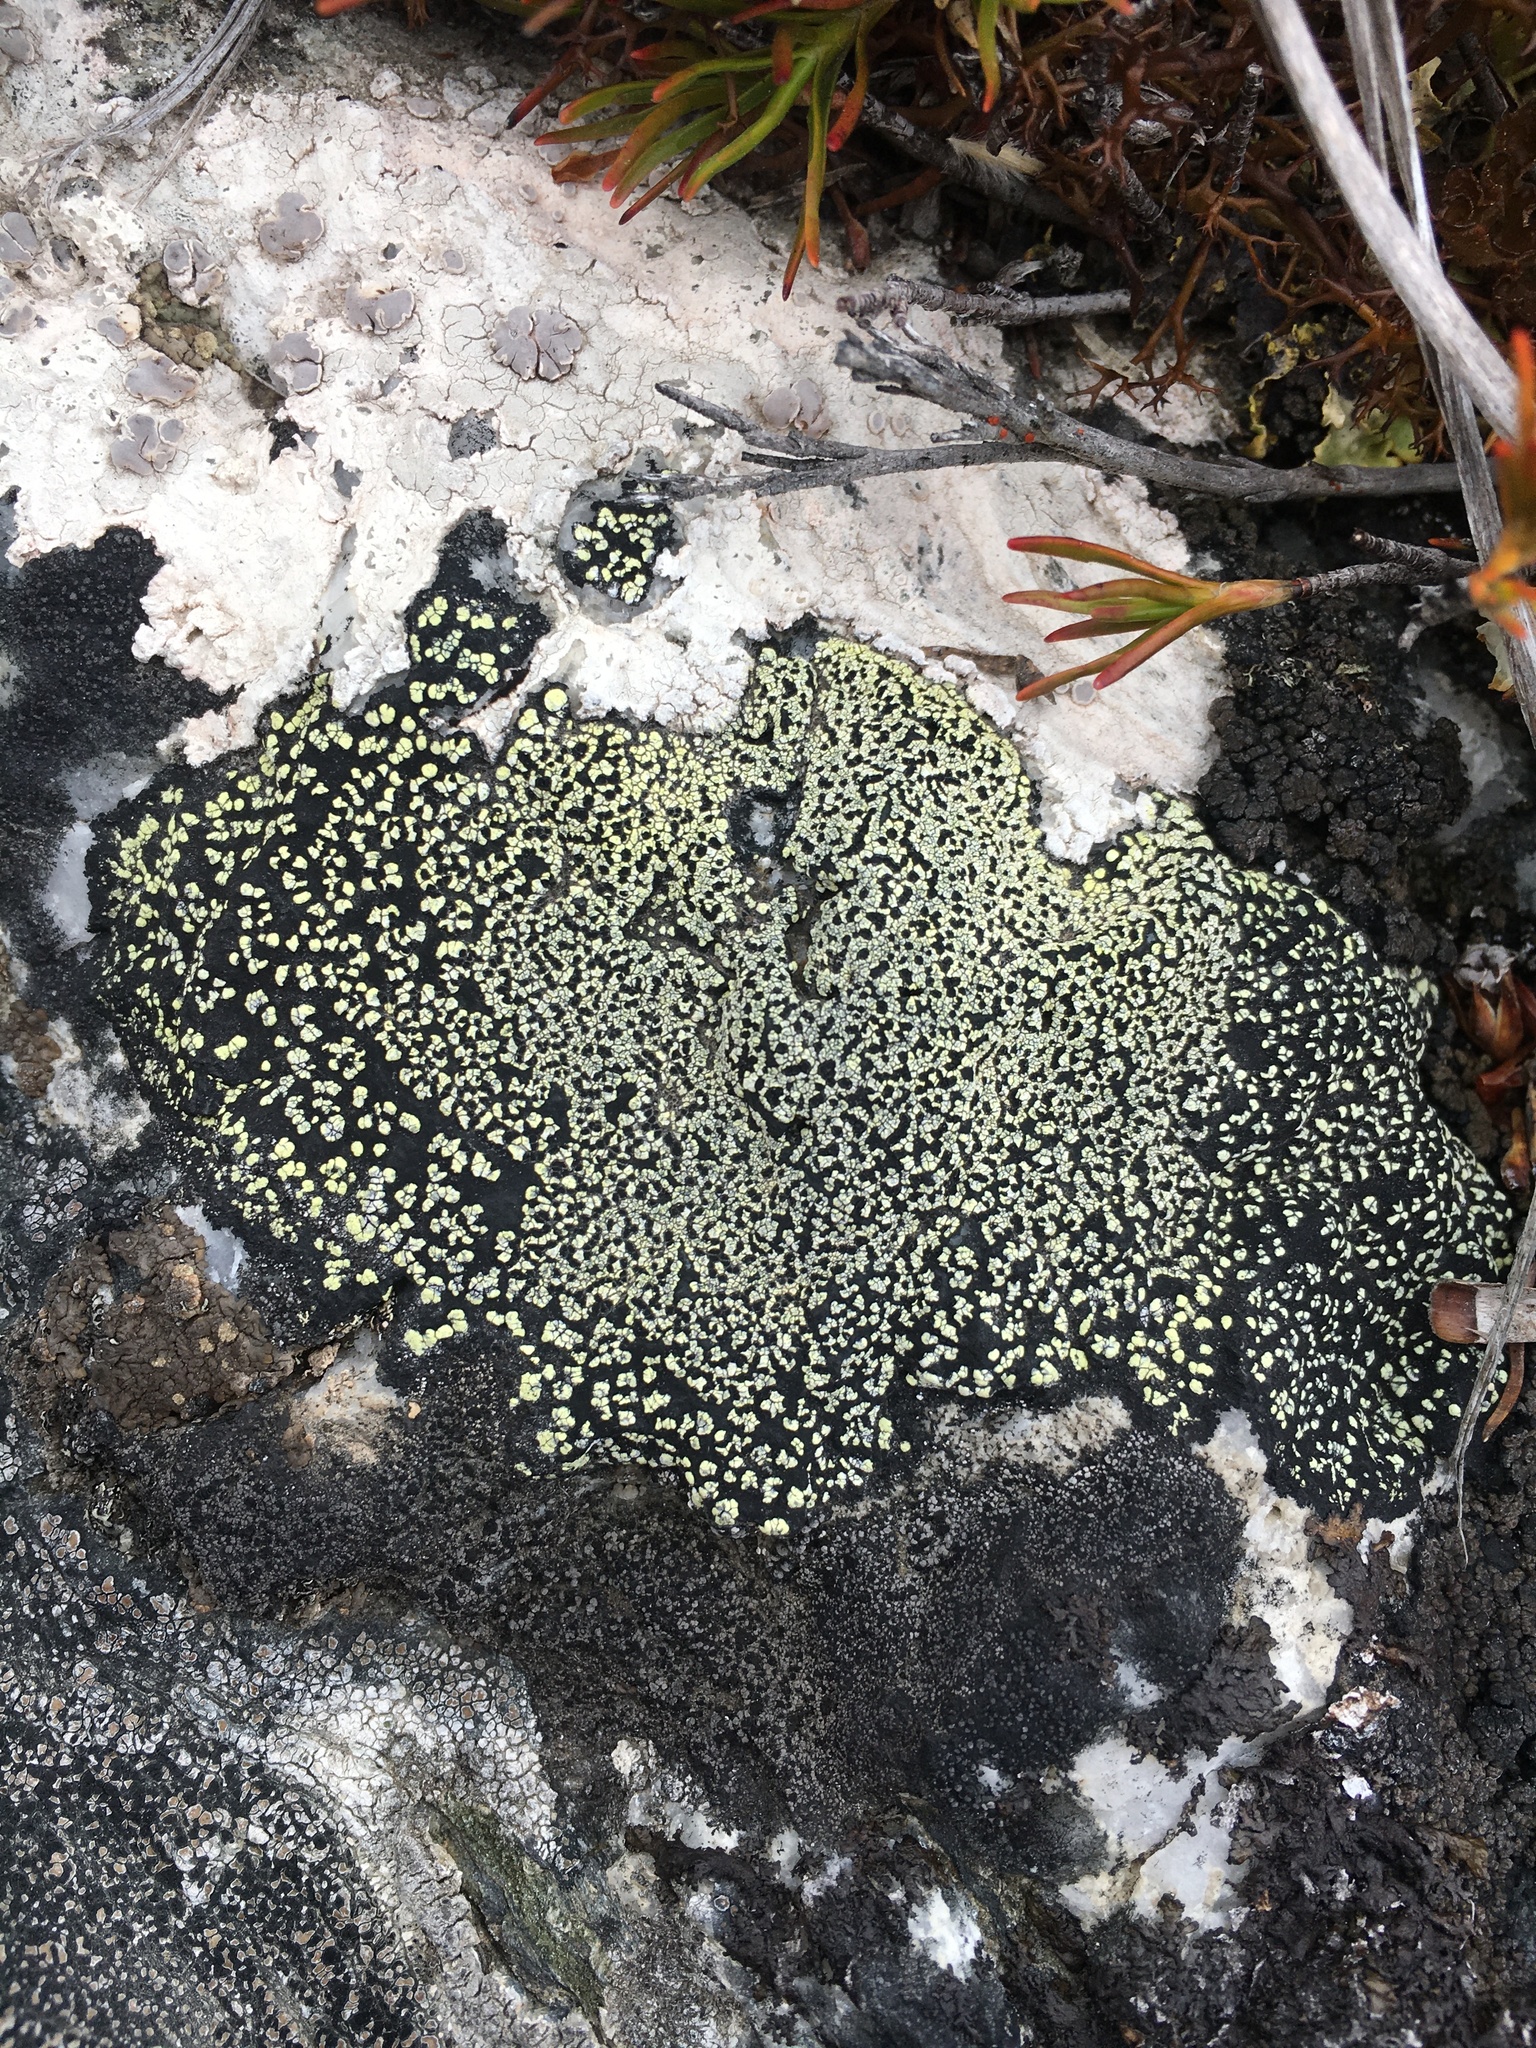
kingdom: Fungi
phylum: Ascomycota
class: Lecanoromycetes
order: Rhizocarpales
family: Rhizocarpaceae
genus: Rhizocarpon
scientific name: Rhizocarpon geographicum
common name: Yellow map lichen
